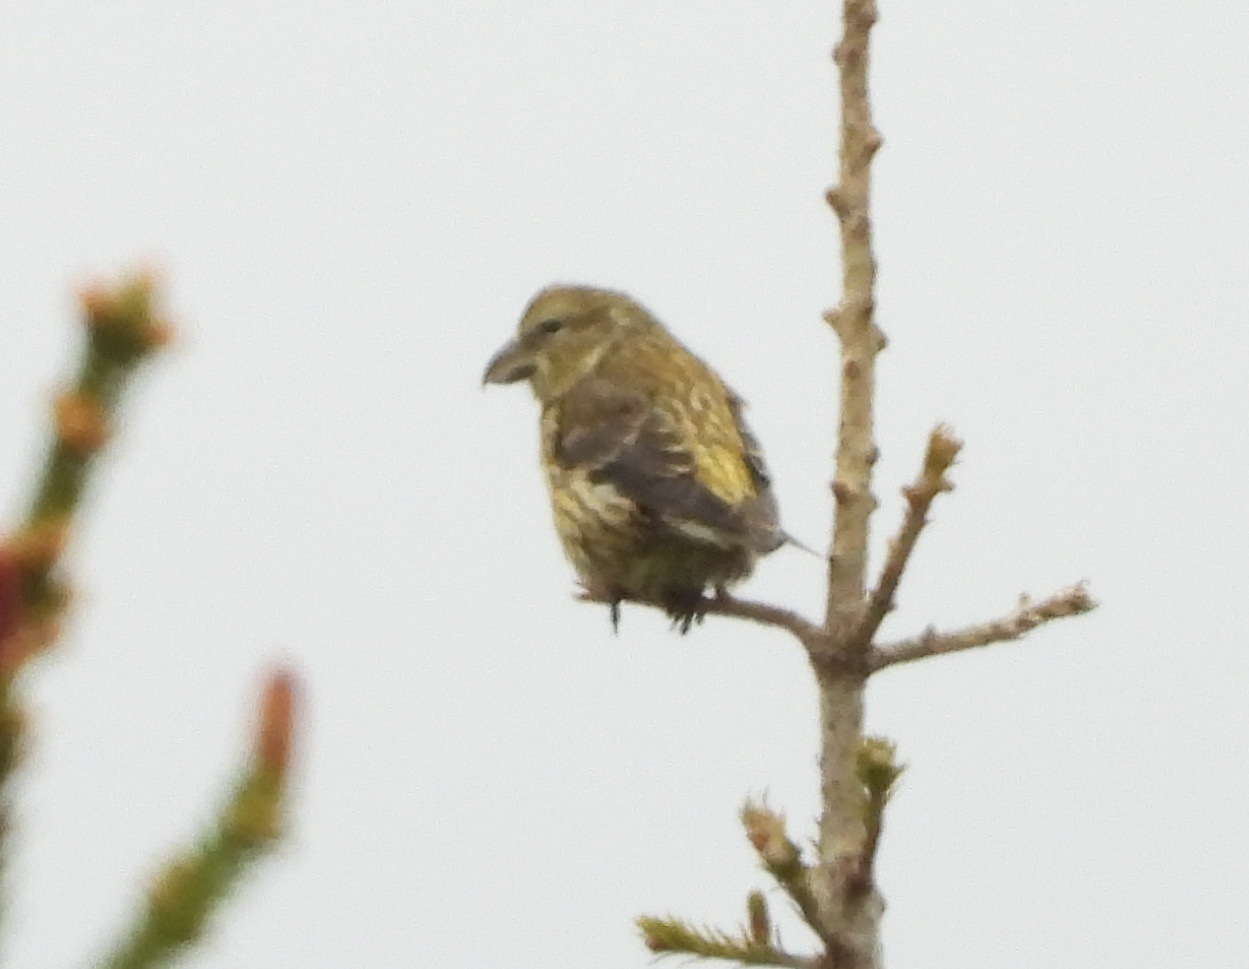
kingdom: Animalia
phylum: Chordata
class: Aves
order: Passeriformes
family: Fringillidae
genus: Loxia
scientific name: Loxia curvirostra
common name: Red crossbill
